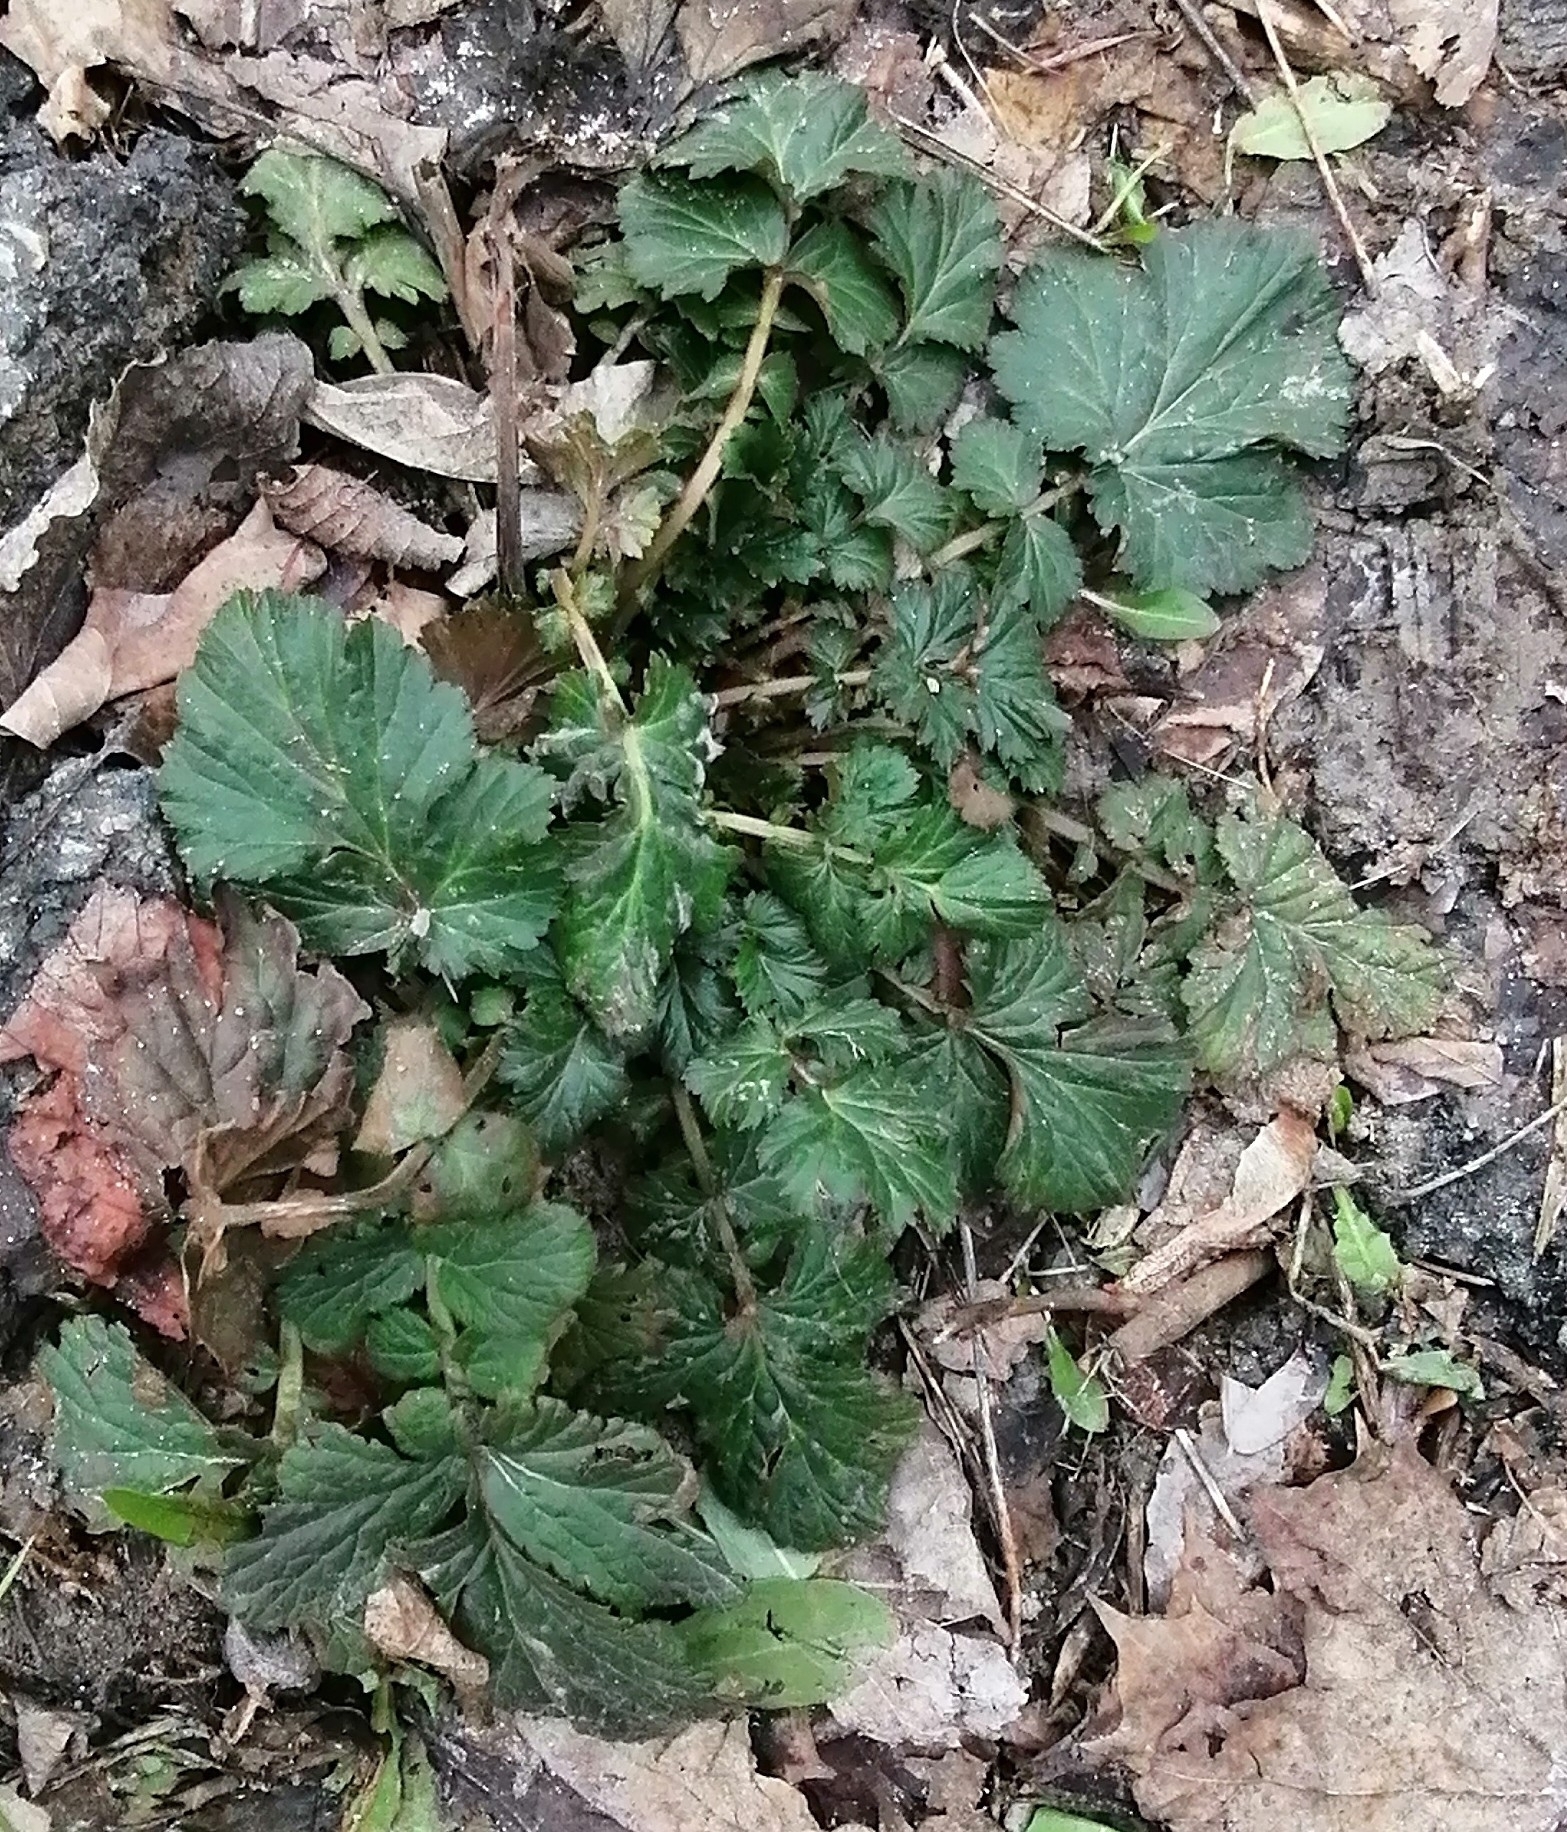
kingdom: Plantae
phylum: Tracheophyta
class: Magnoliopsida
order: Rosales
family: Rosaceae
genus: Geum
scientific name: Geum urbanum
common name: Wood avens
